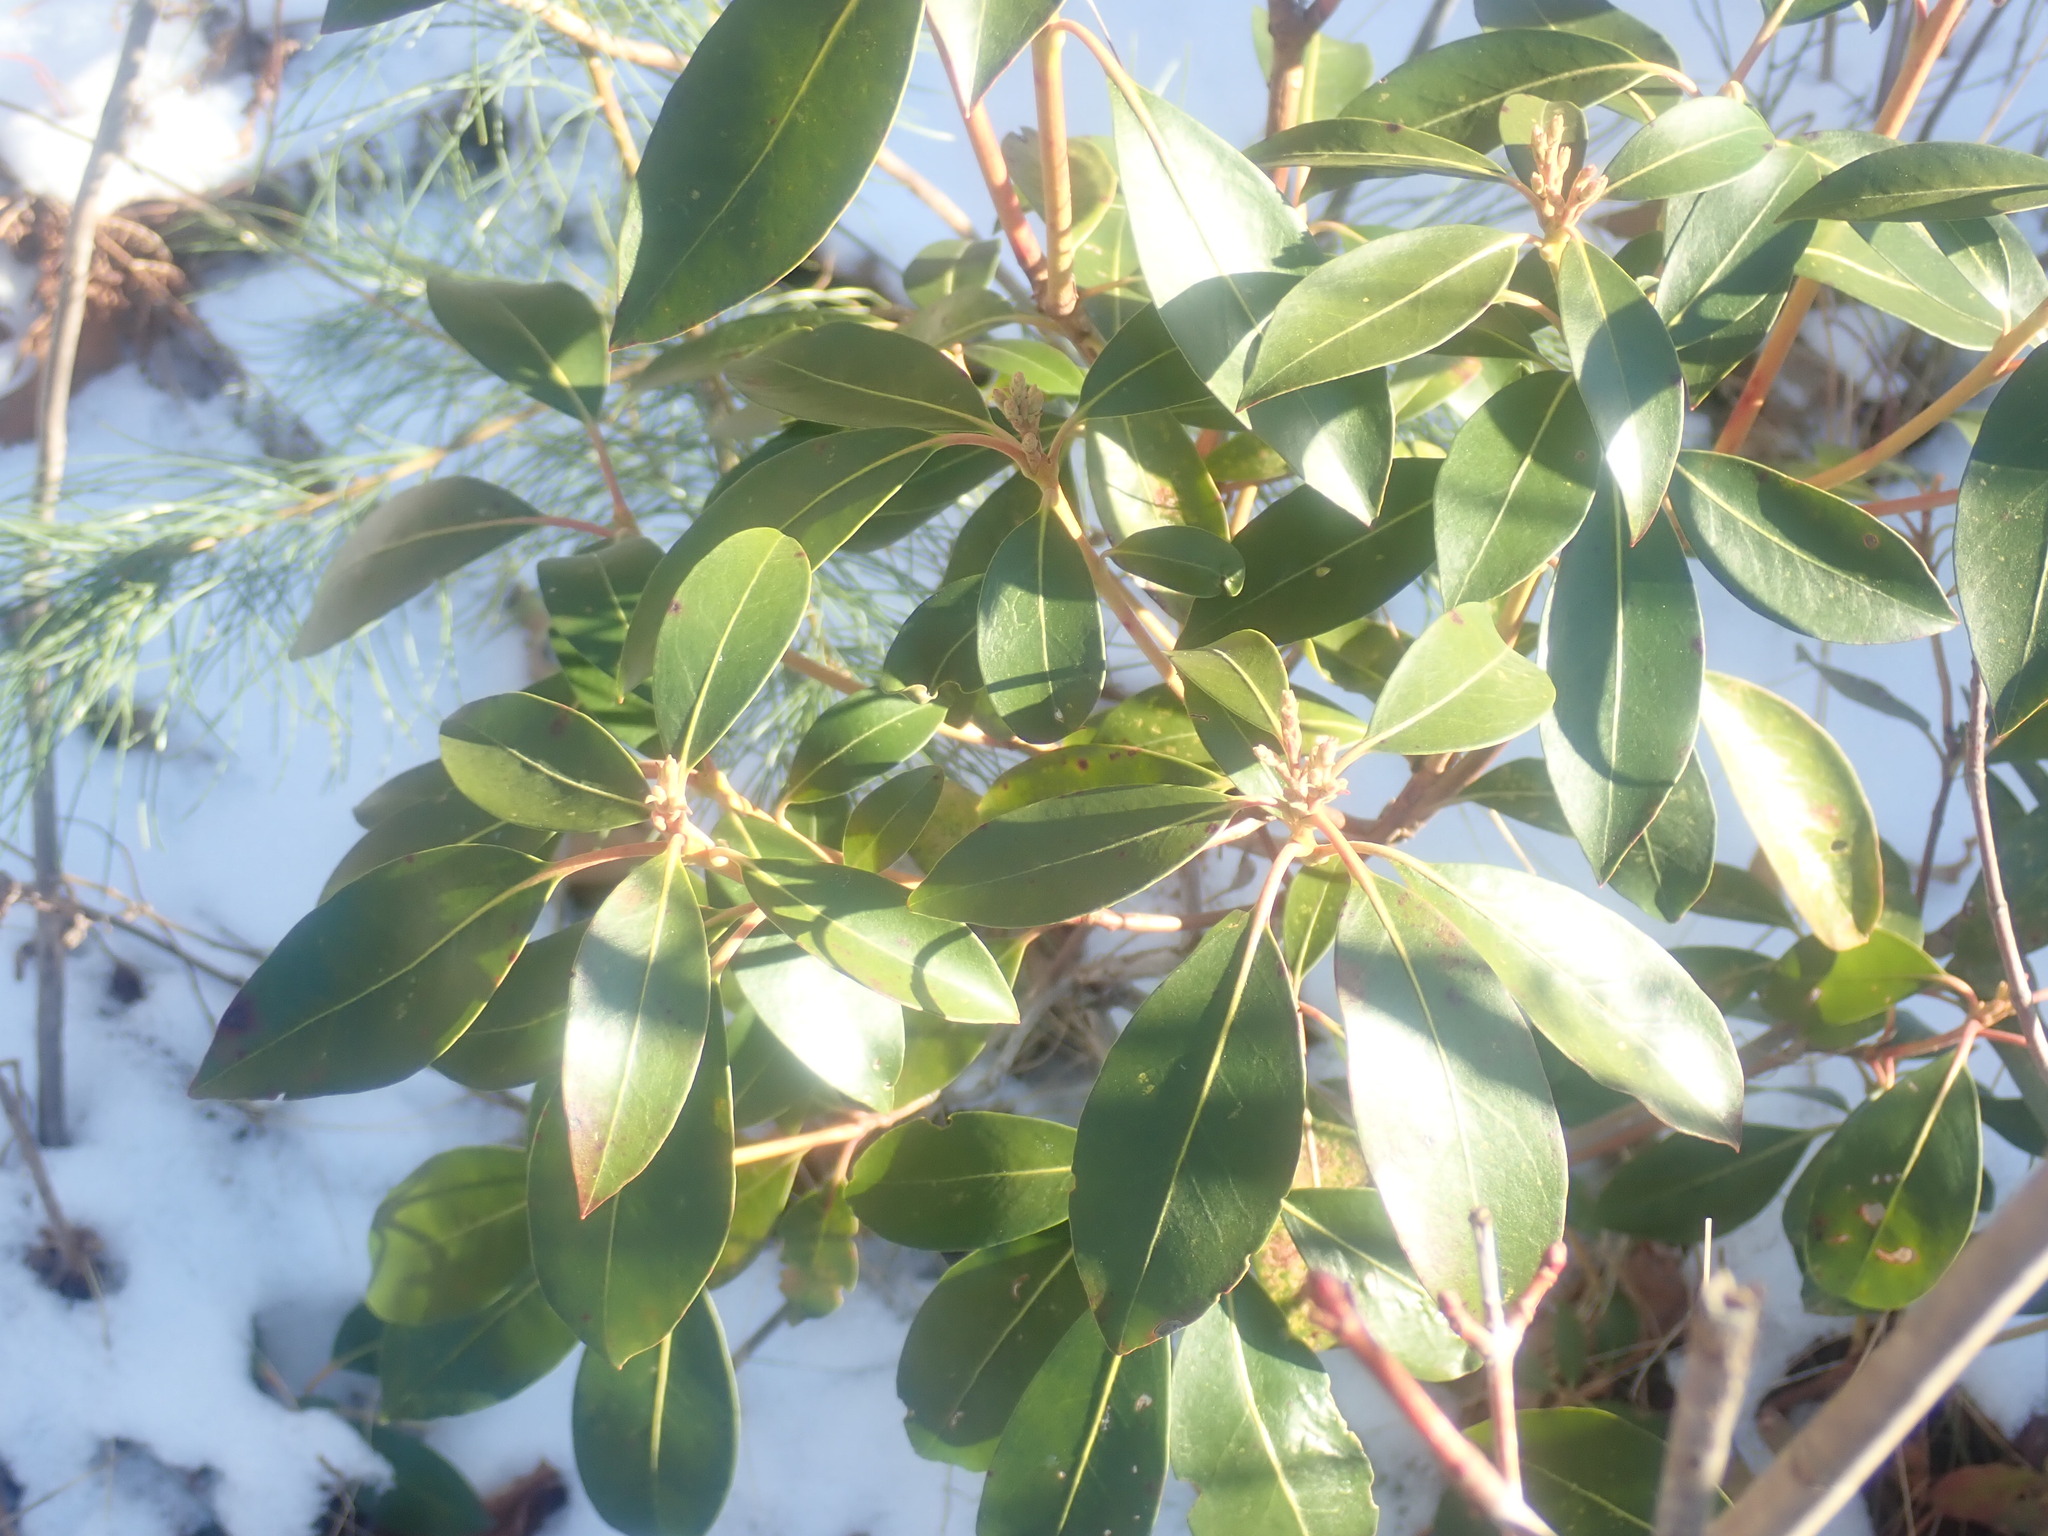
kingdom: Plantae
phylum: Tracheophyta
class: Magnoliopsida
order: Ericales
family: Ericaceae
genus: Kalmia
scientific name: Kalmia latifolia
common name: Mountain-laurel
